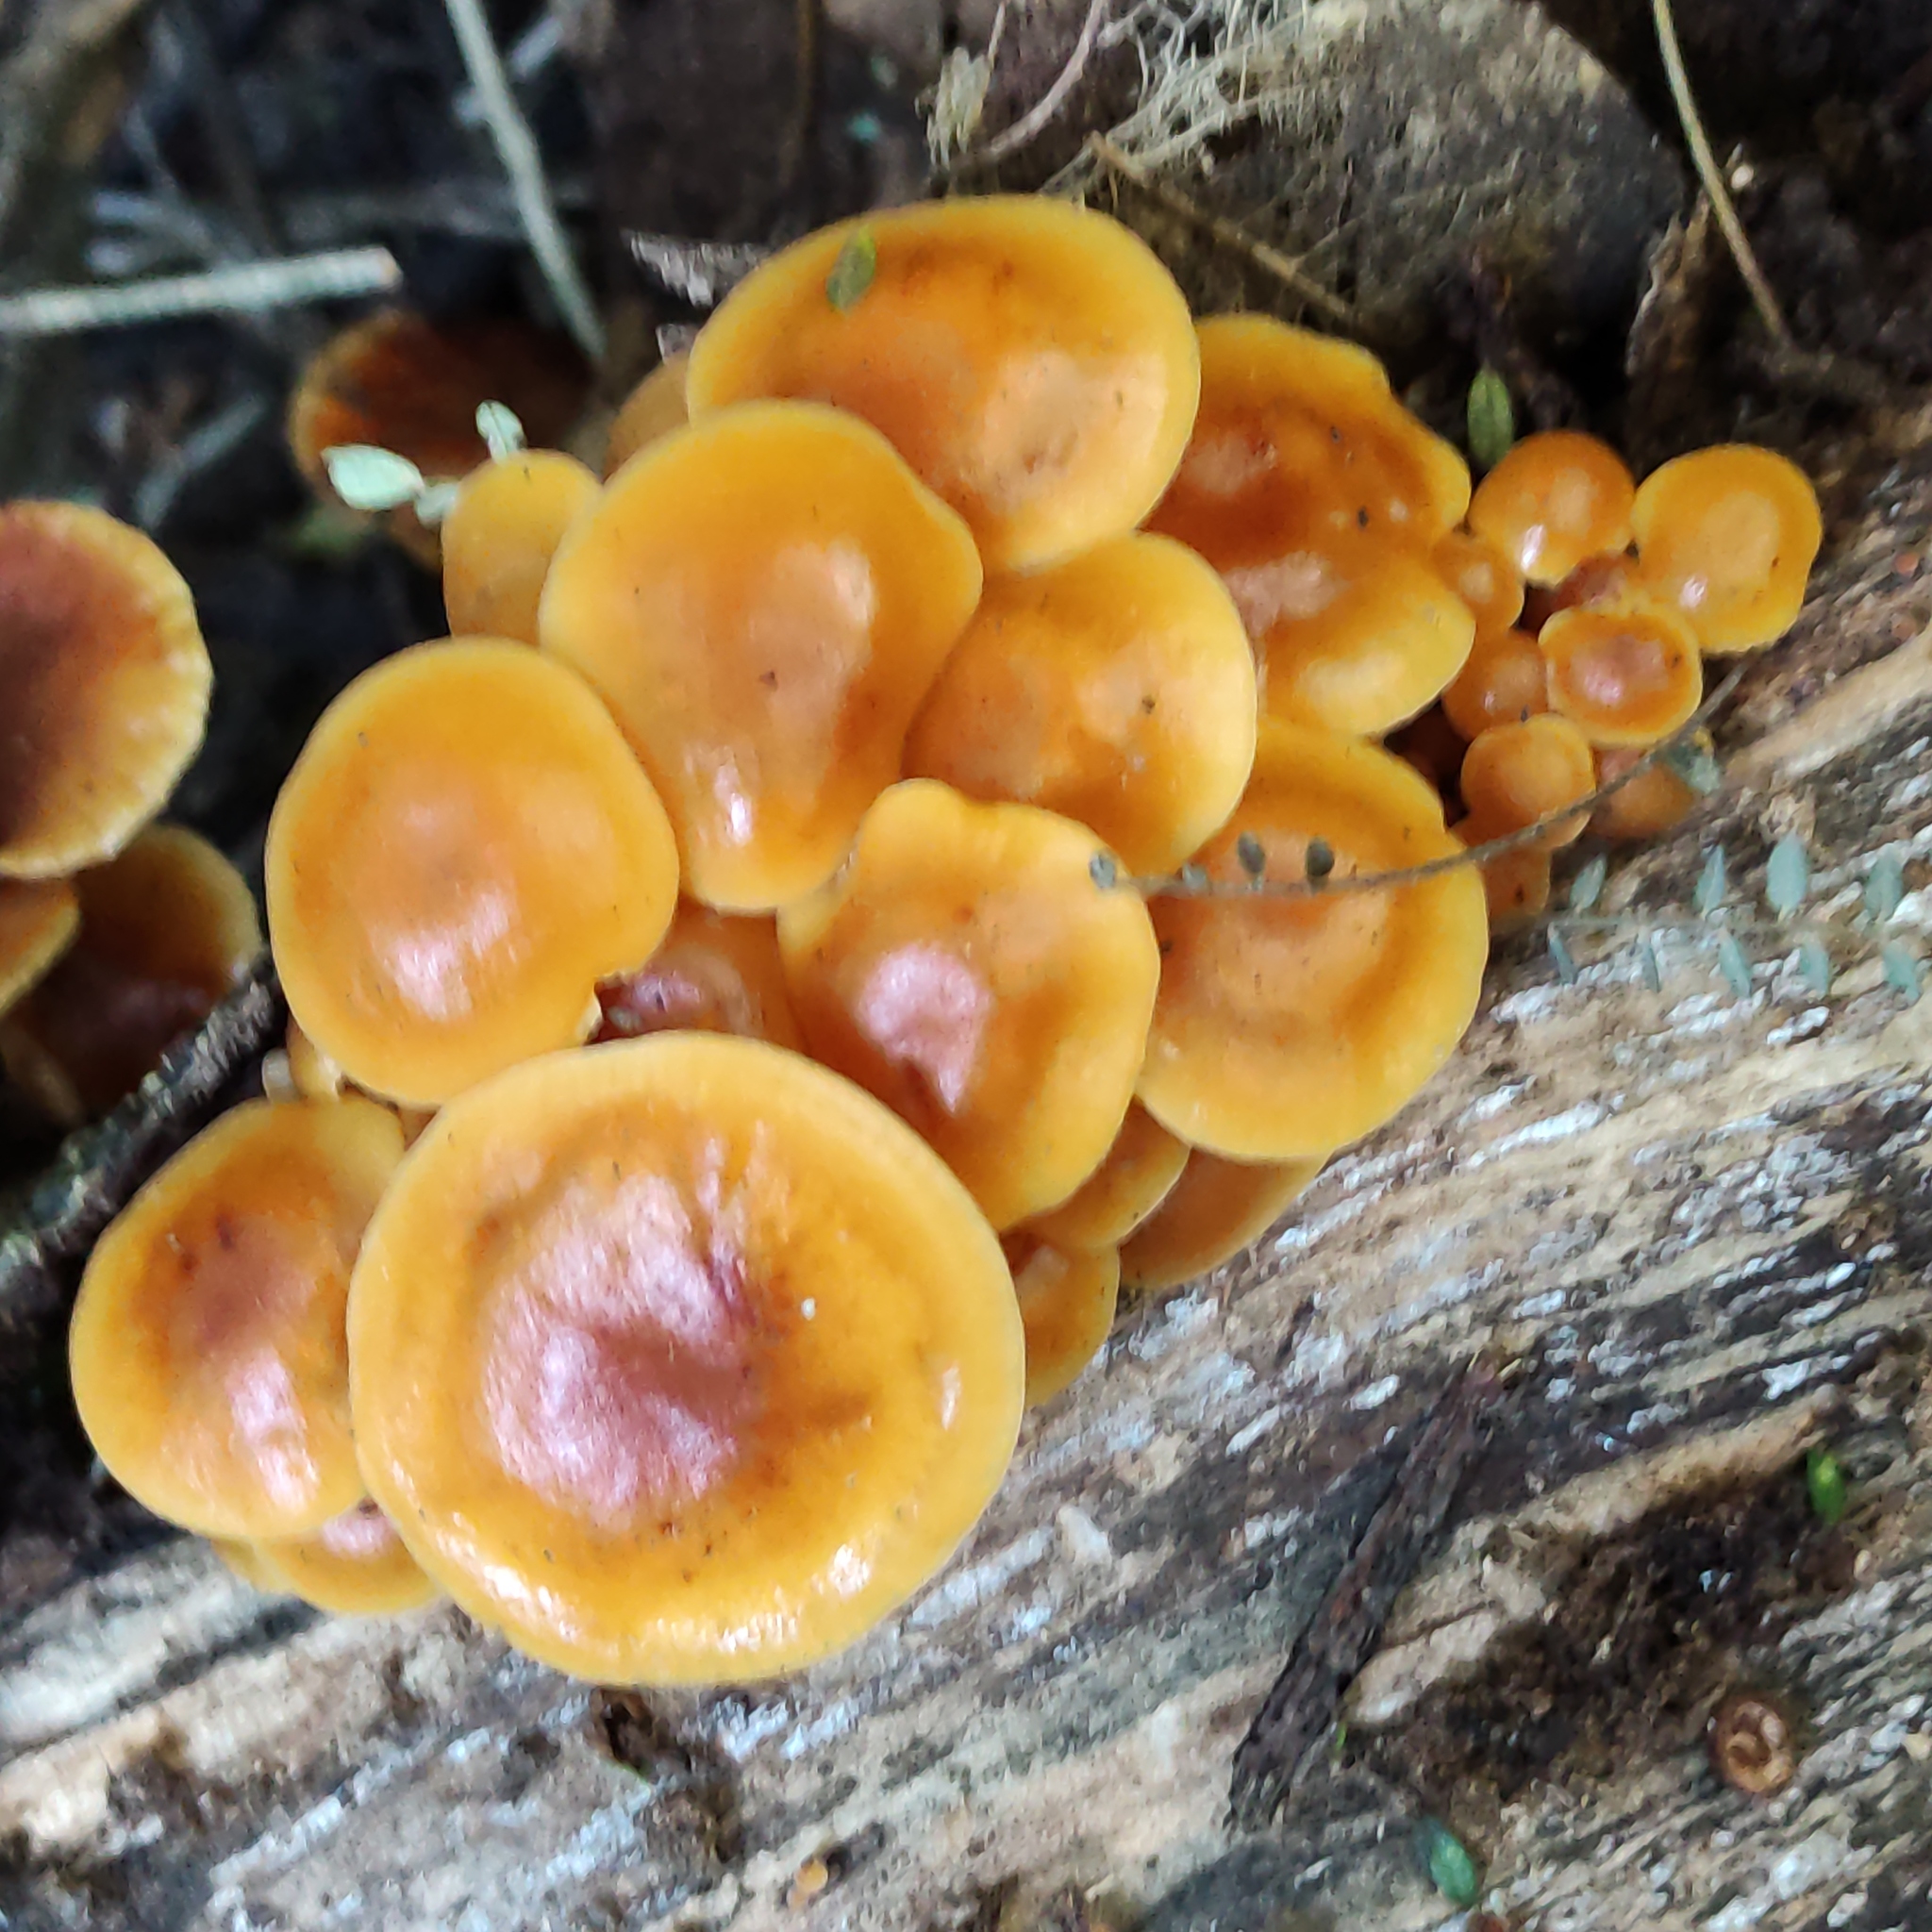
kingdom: Fungi
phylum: Basidiomycota
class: Agaricomycetes
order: Agaricales
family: Physalacriaceae
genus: Flammulina
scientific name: Flammulina velutipes
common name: Velvet shank
